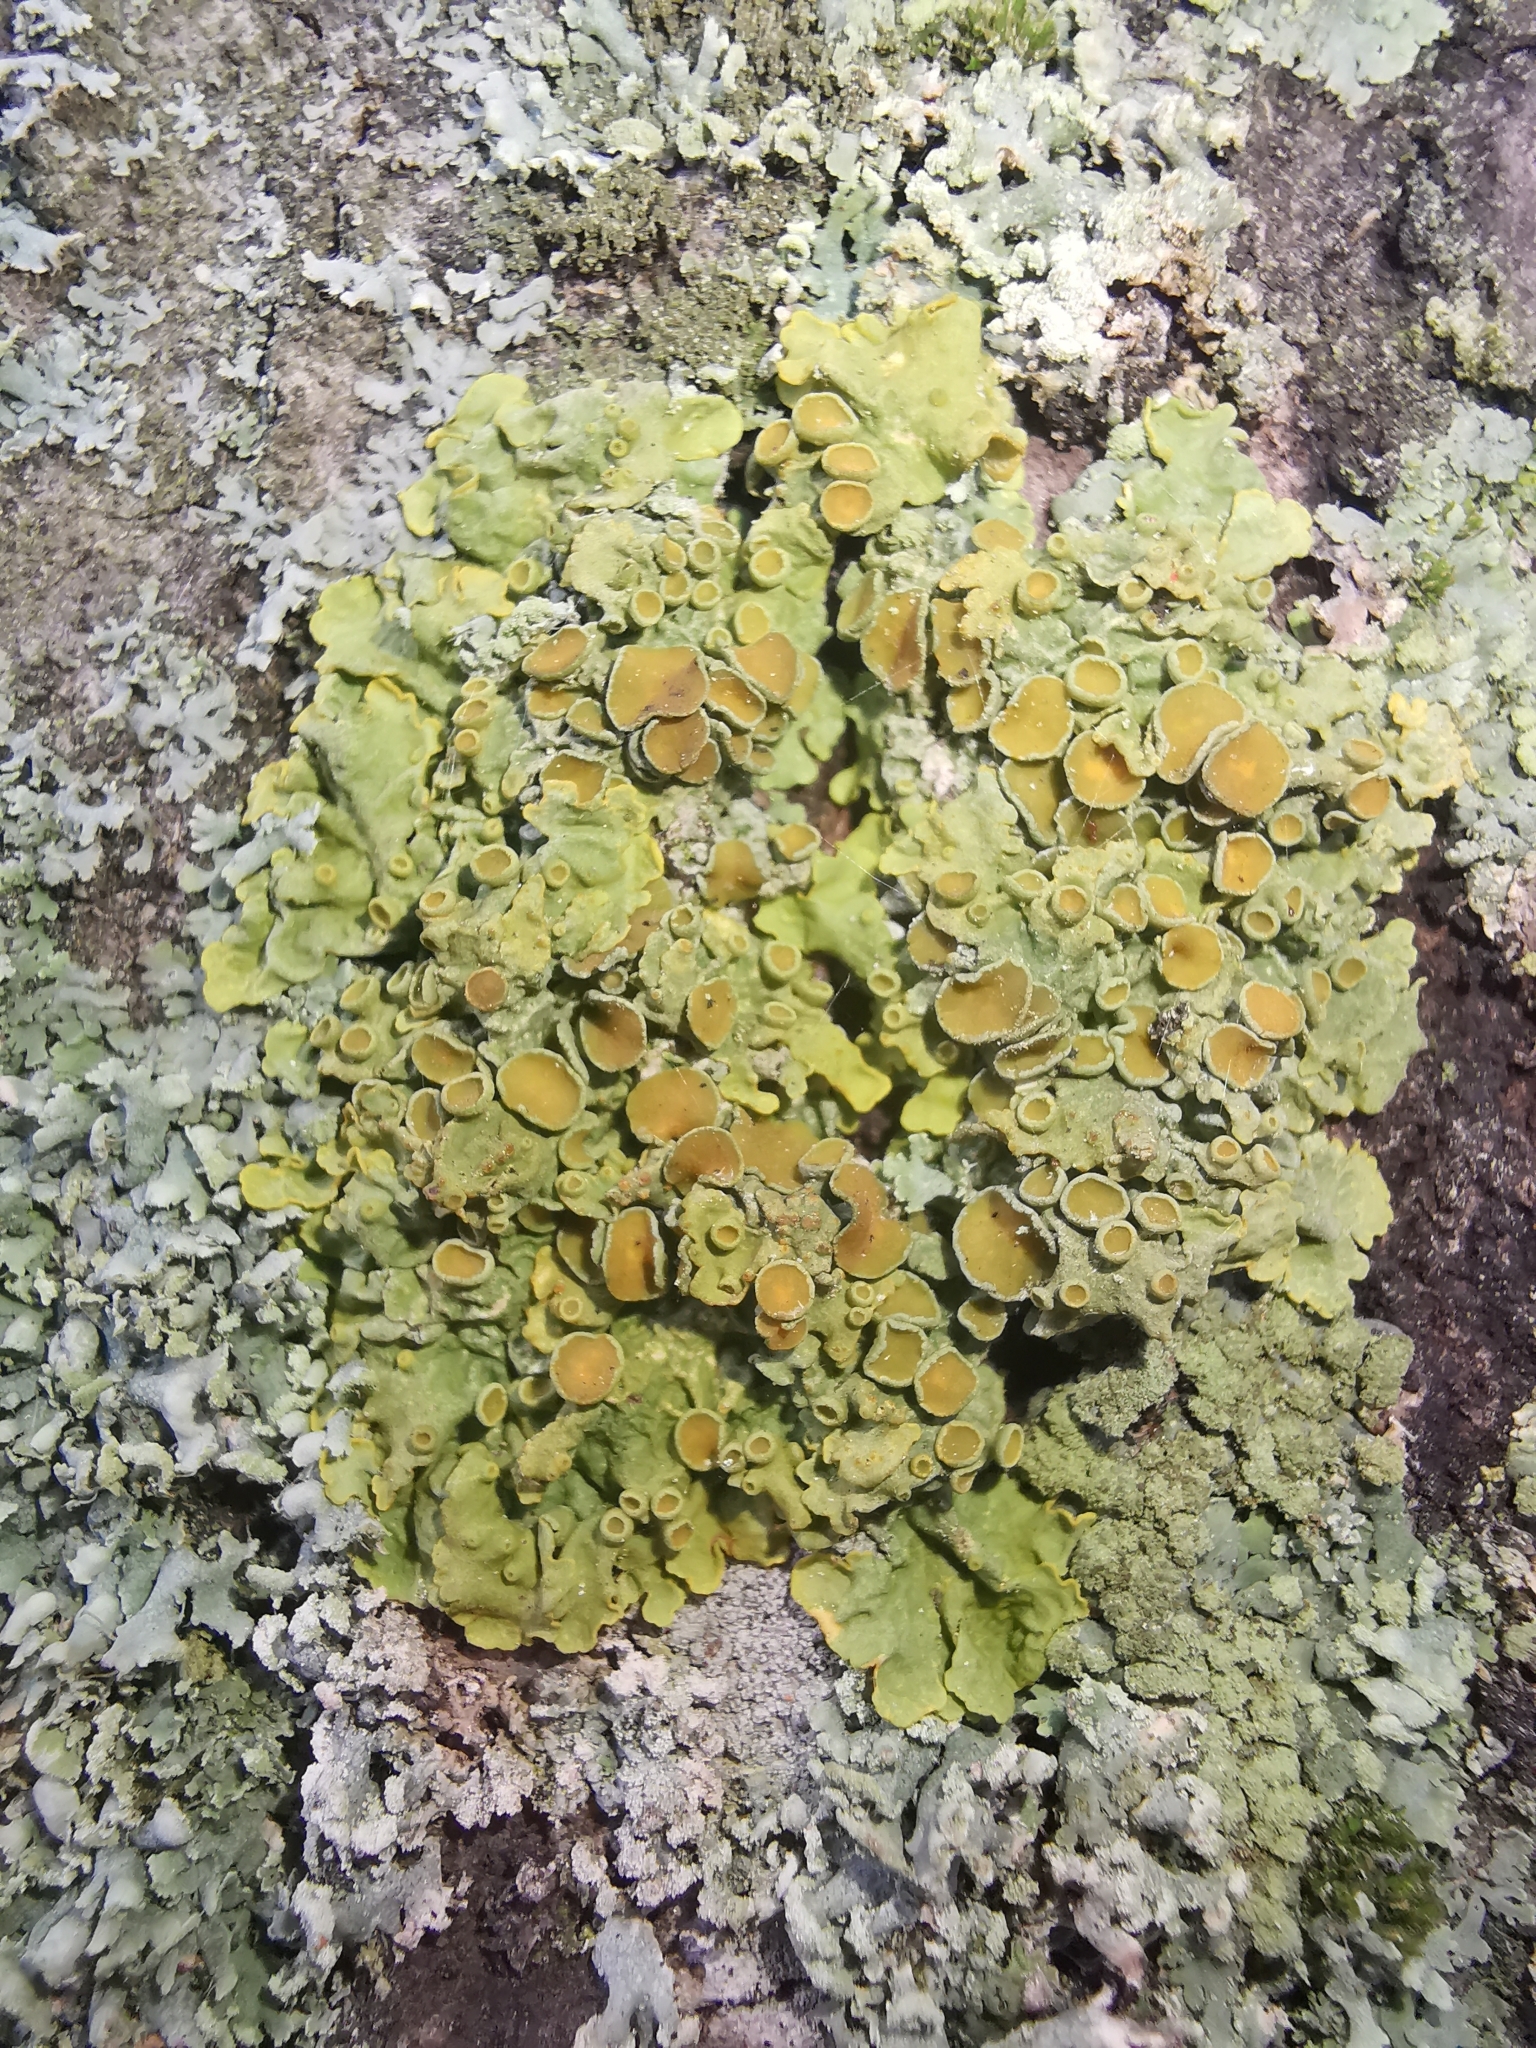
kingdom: Fungi
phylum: Ascomycota
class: Lecanoromycetes
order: Teloschistales
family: Teloschistaceae
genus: Xanthoria
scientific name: Xanthoria parietina
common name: Common orange lichen
